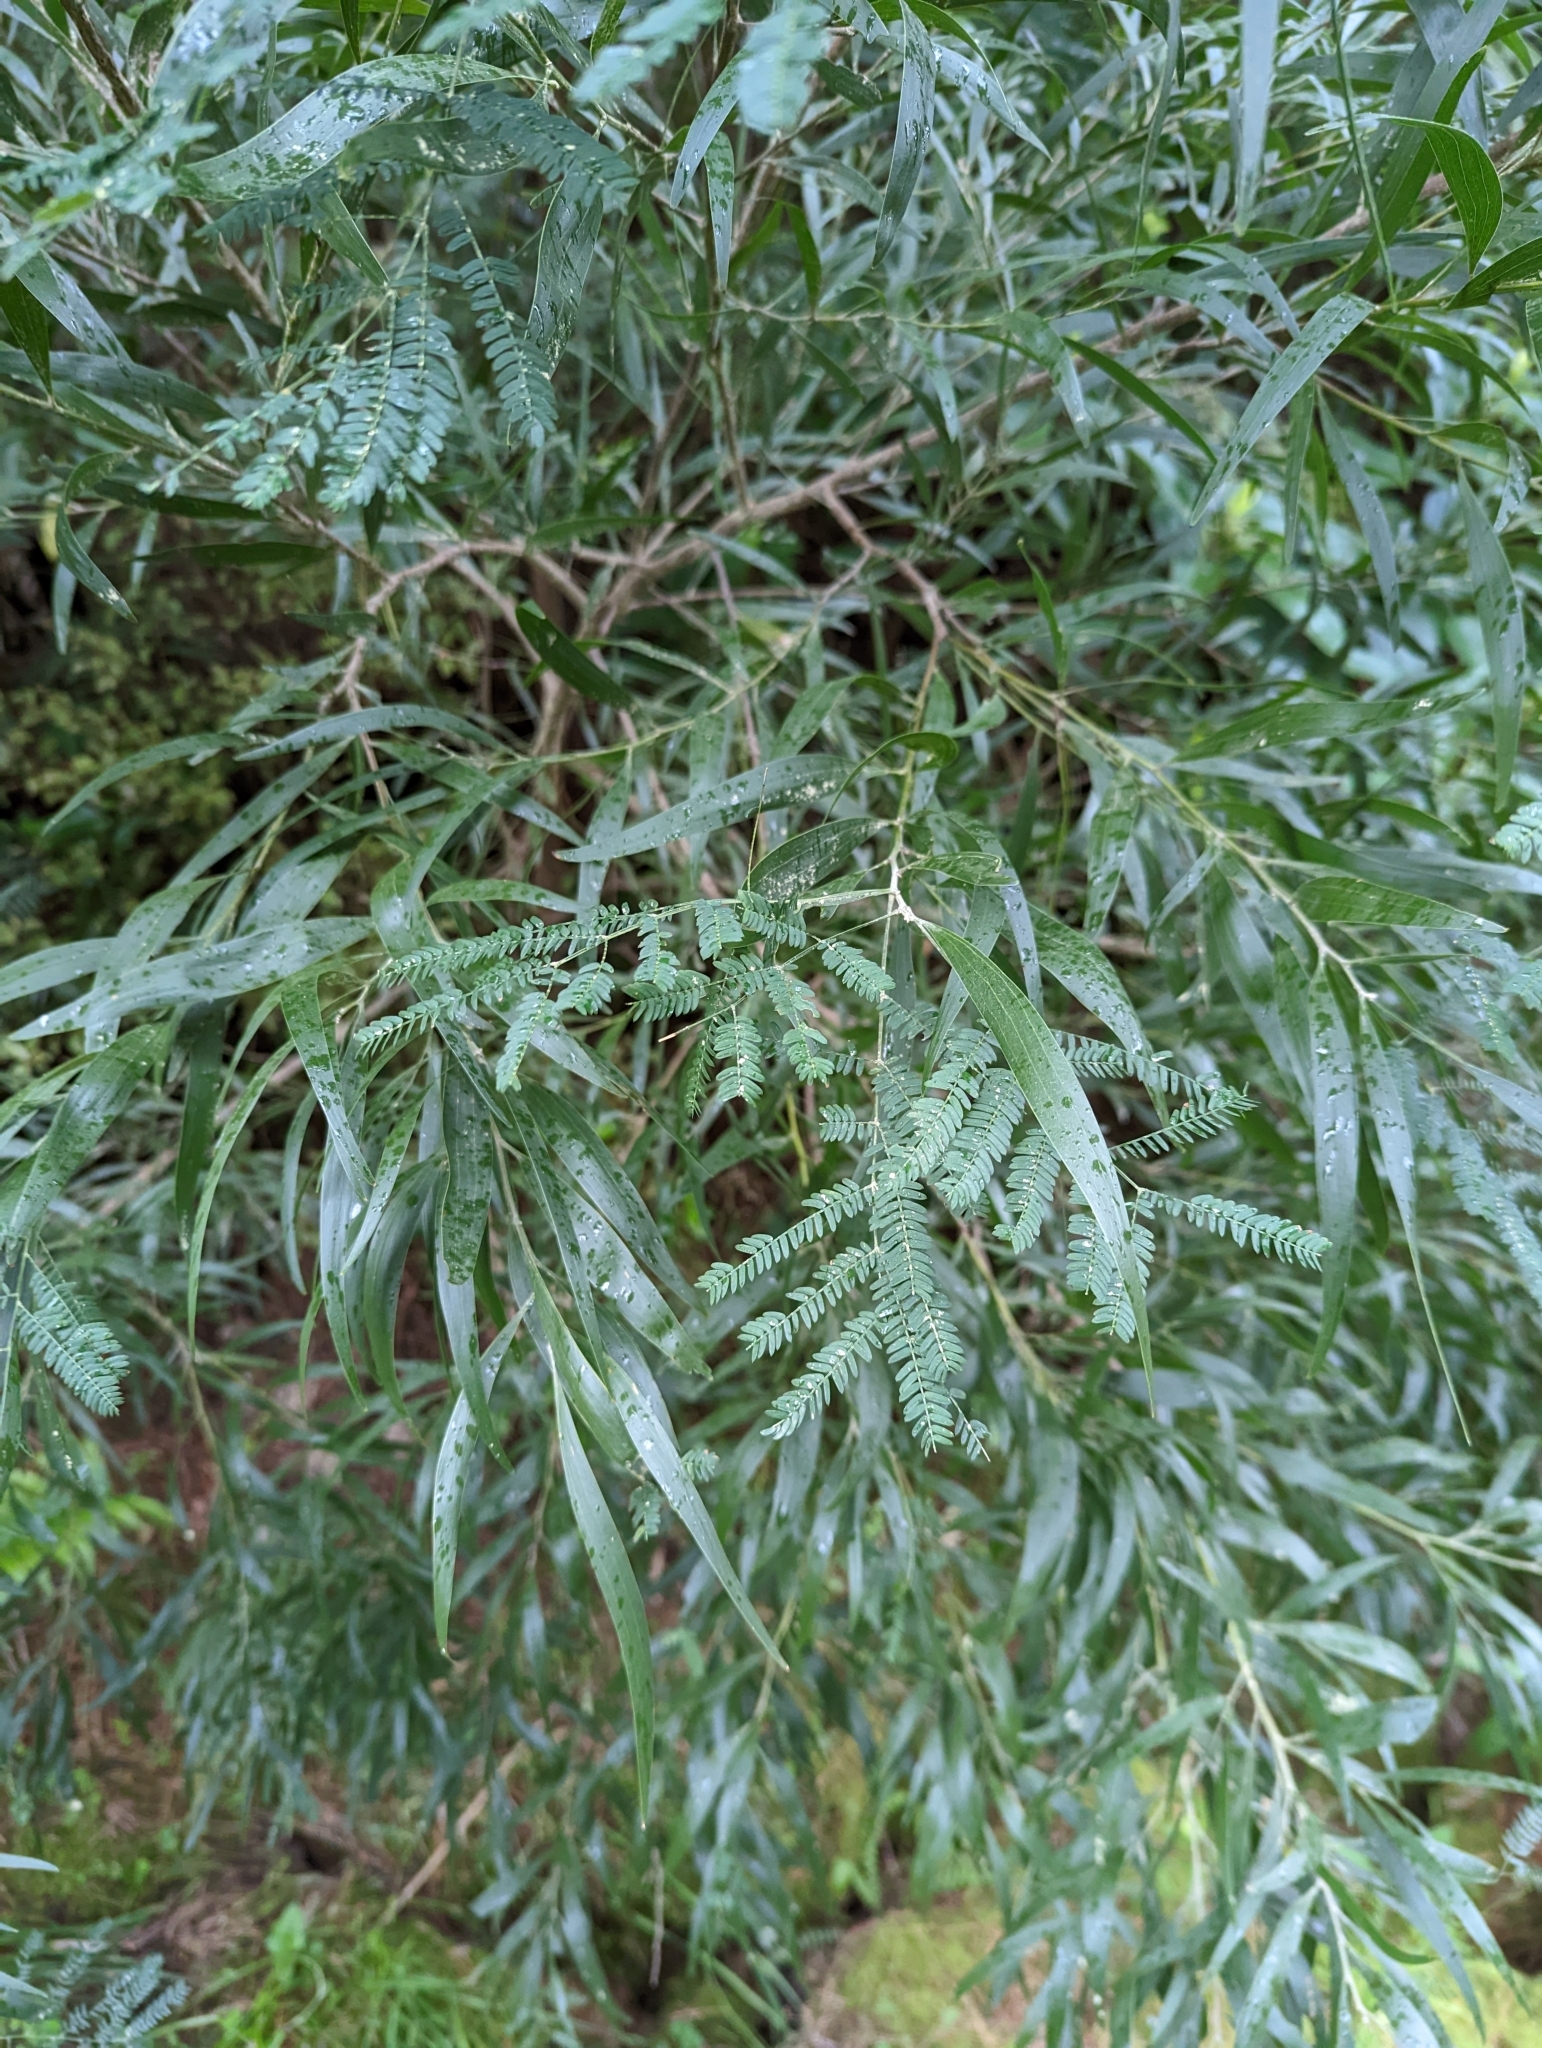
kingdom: Plantae
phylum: Tracheophyta
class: Magnoliopsida
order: Fabales
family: Fabaceae
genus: Acacia
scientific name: Acacia melanoxylon
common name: Blackwood
